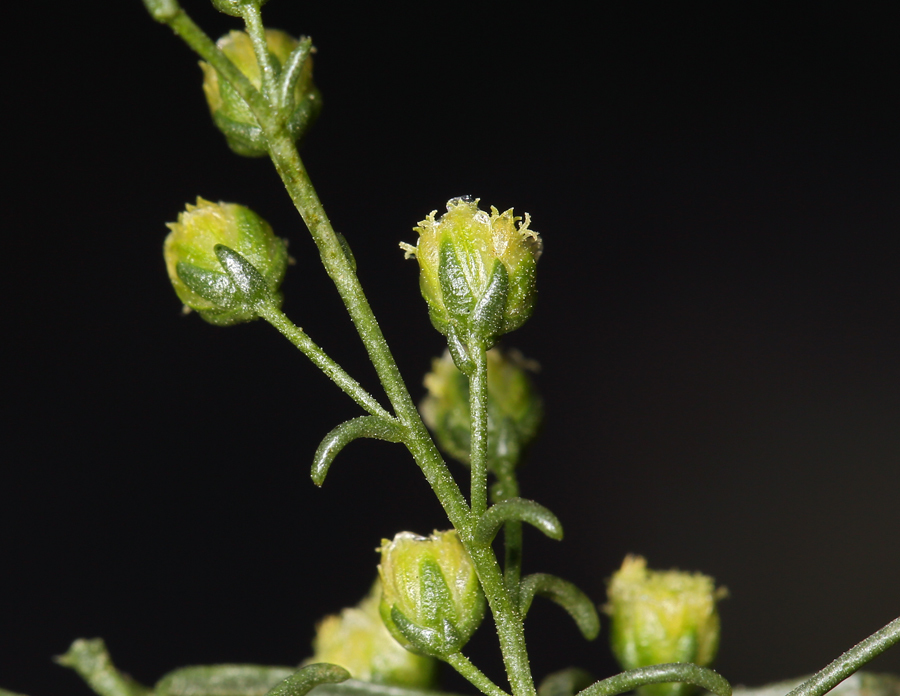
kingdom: Plantae
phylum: Tracheophyta
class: Magnoliopsida
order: Asterales
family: Asteraceae
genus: Artemisia
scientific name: Artemisia dracunculus
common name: Tarragon
